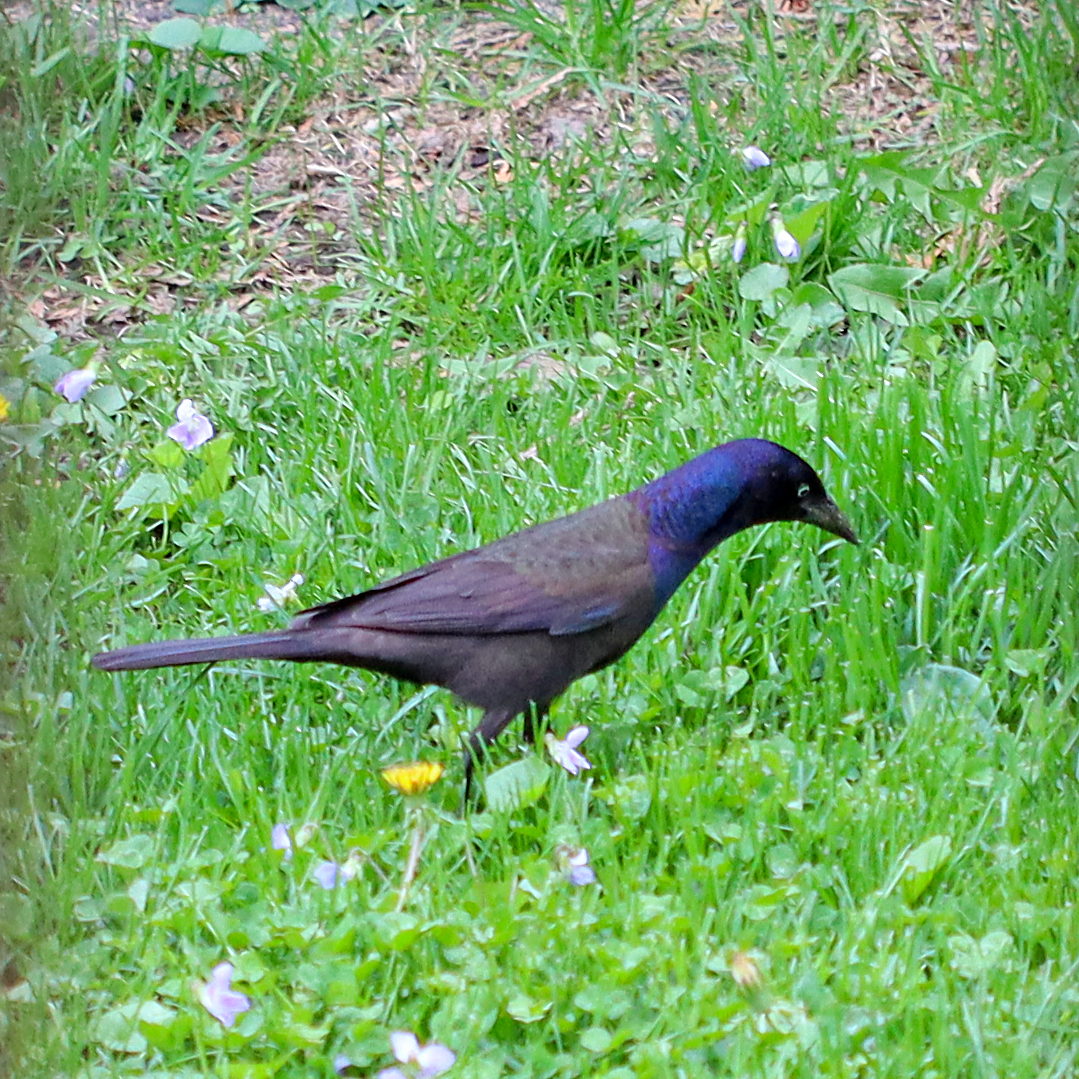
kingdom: Animalia
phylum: Chordata
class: Aves
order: Passeriformes
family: Icteridae
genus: Quiscalus
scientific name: Quiscalus quiscula
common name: Common grackle
